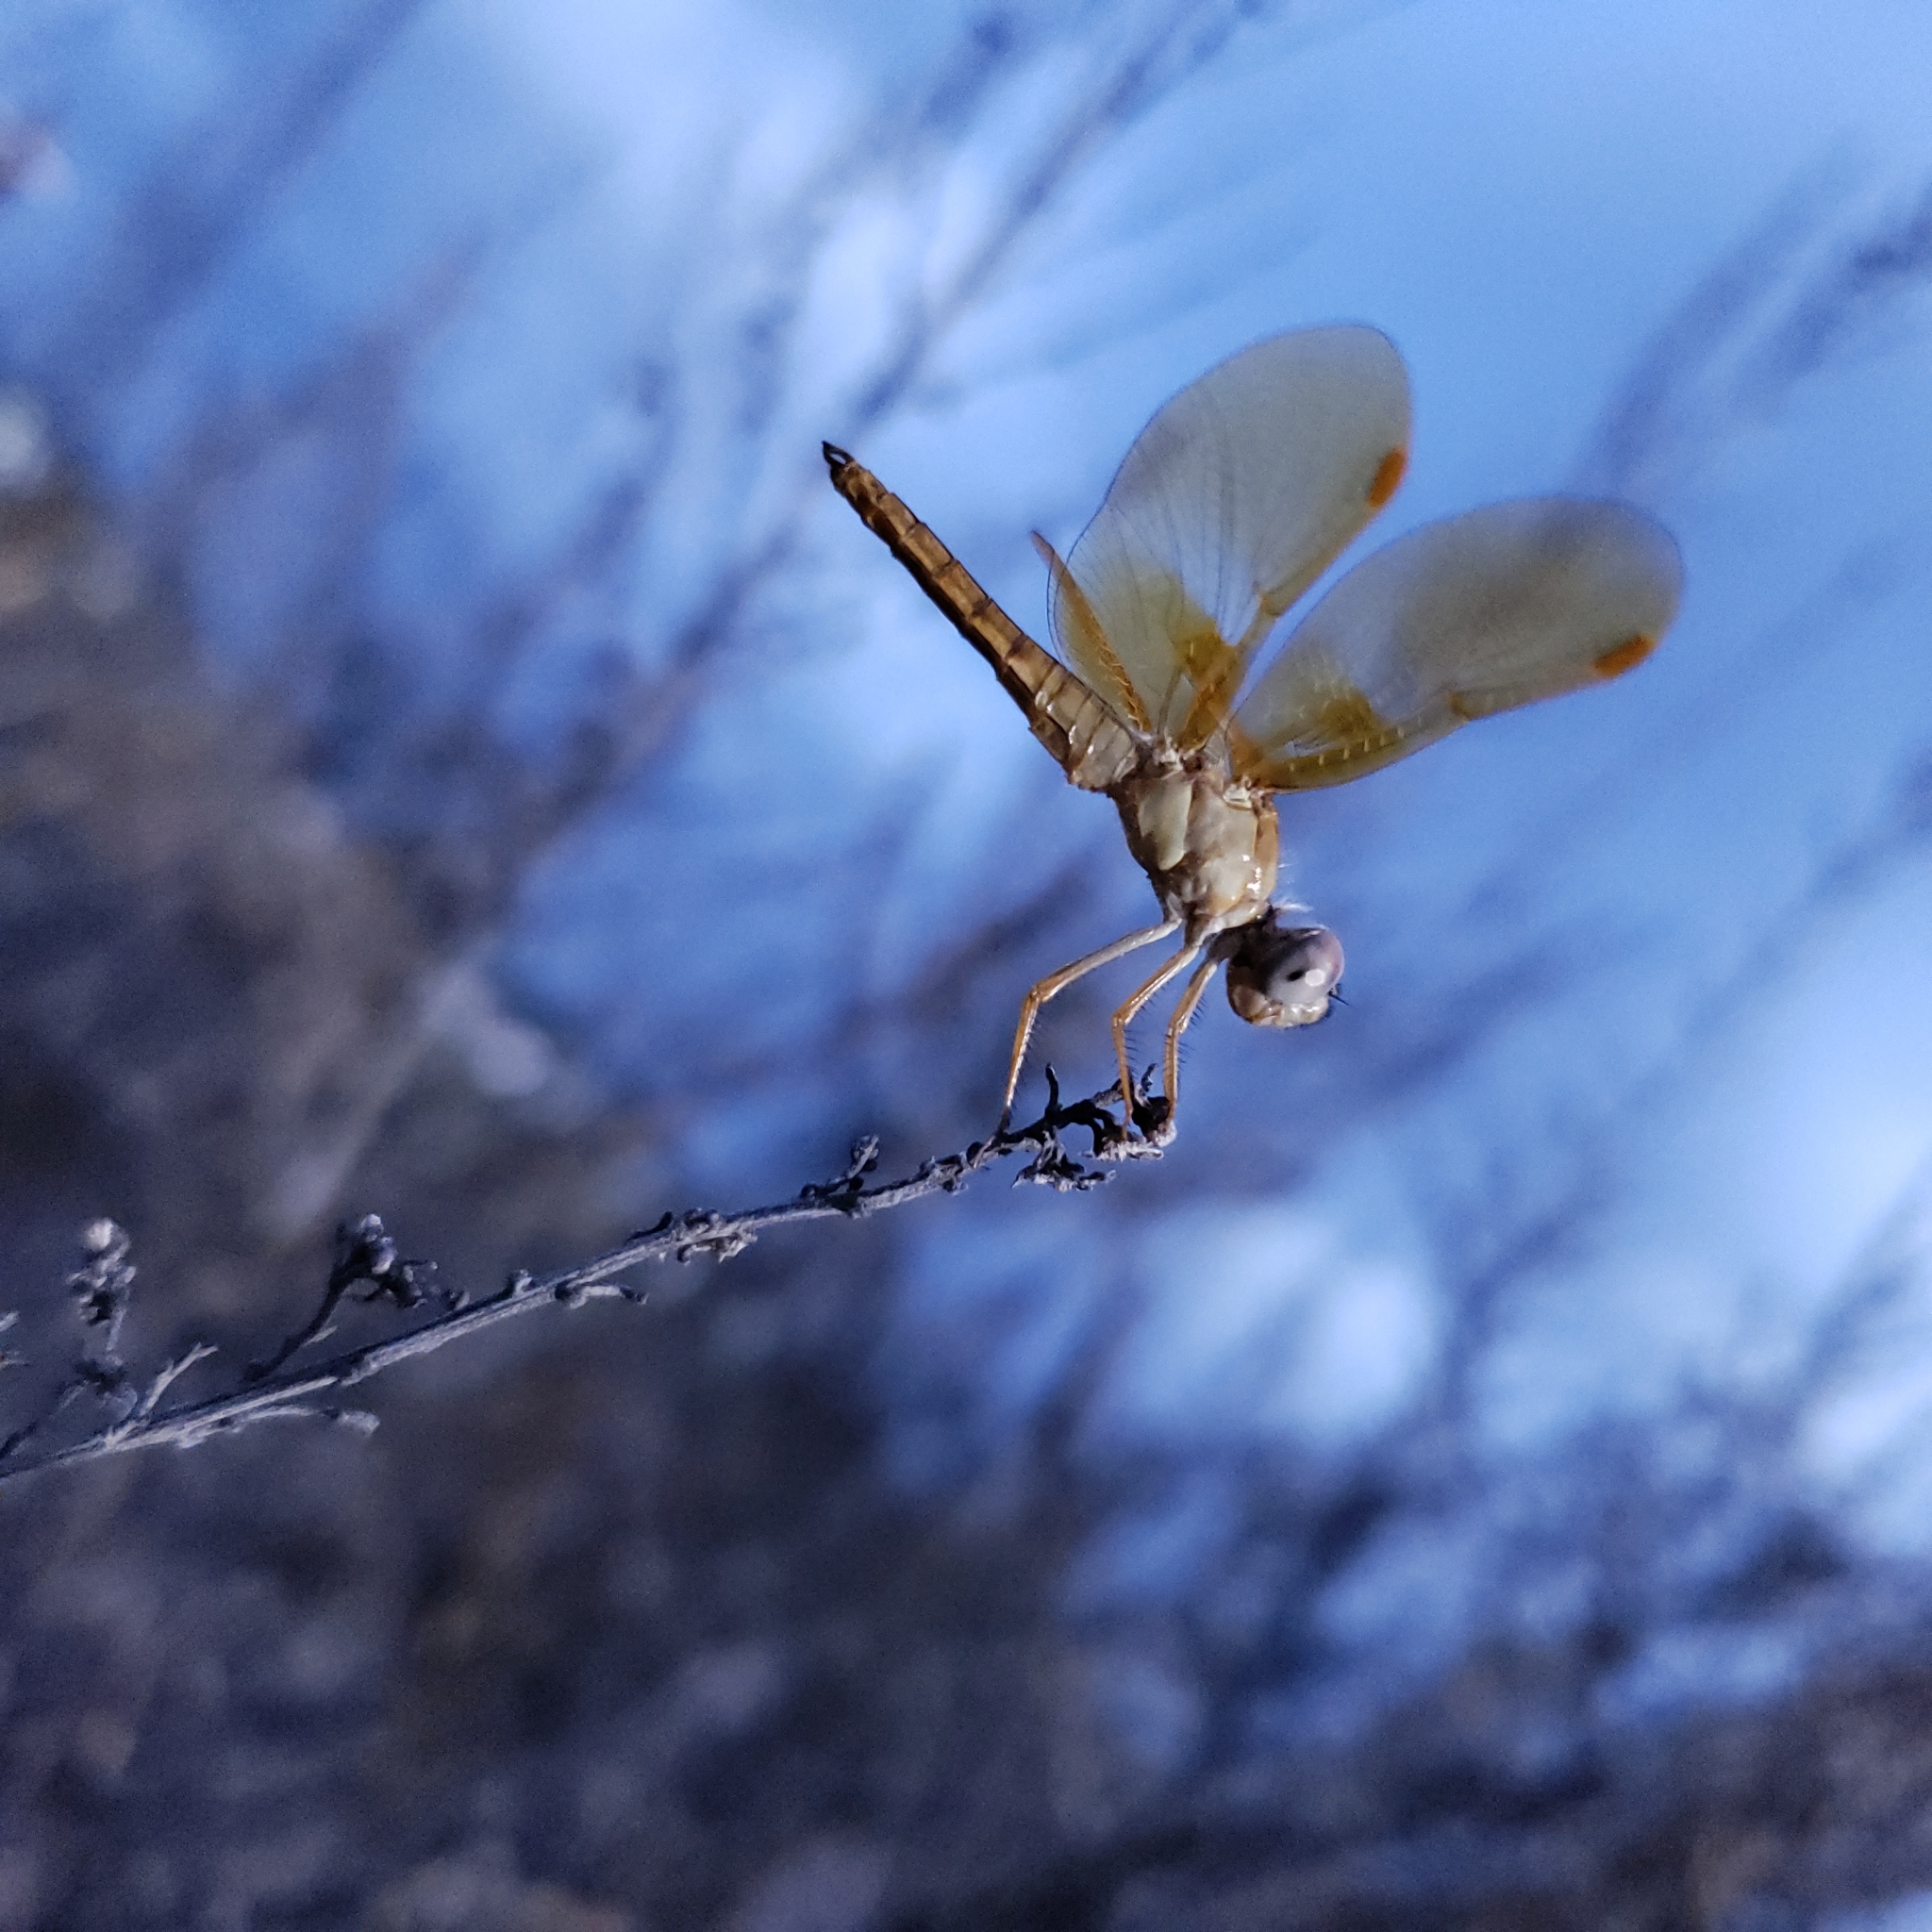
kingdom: Animalia
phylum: Arthropoda
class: Insecta
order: Odonata
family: Libellulidae
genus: Perithemis
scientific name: Perithemis intensa
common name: Mexican amberwing
